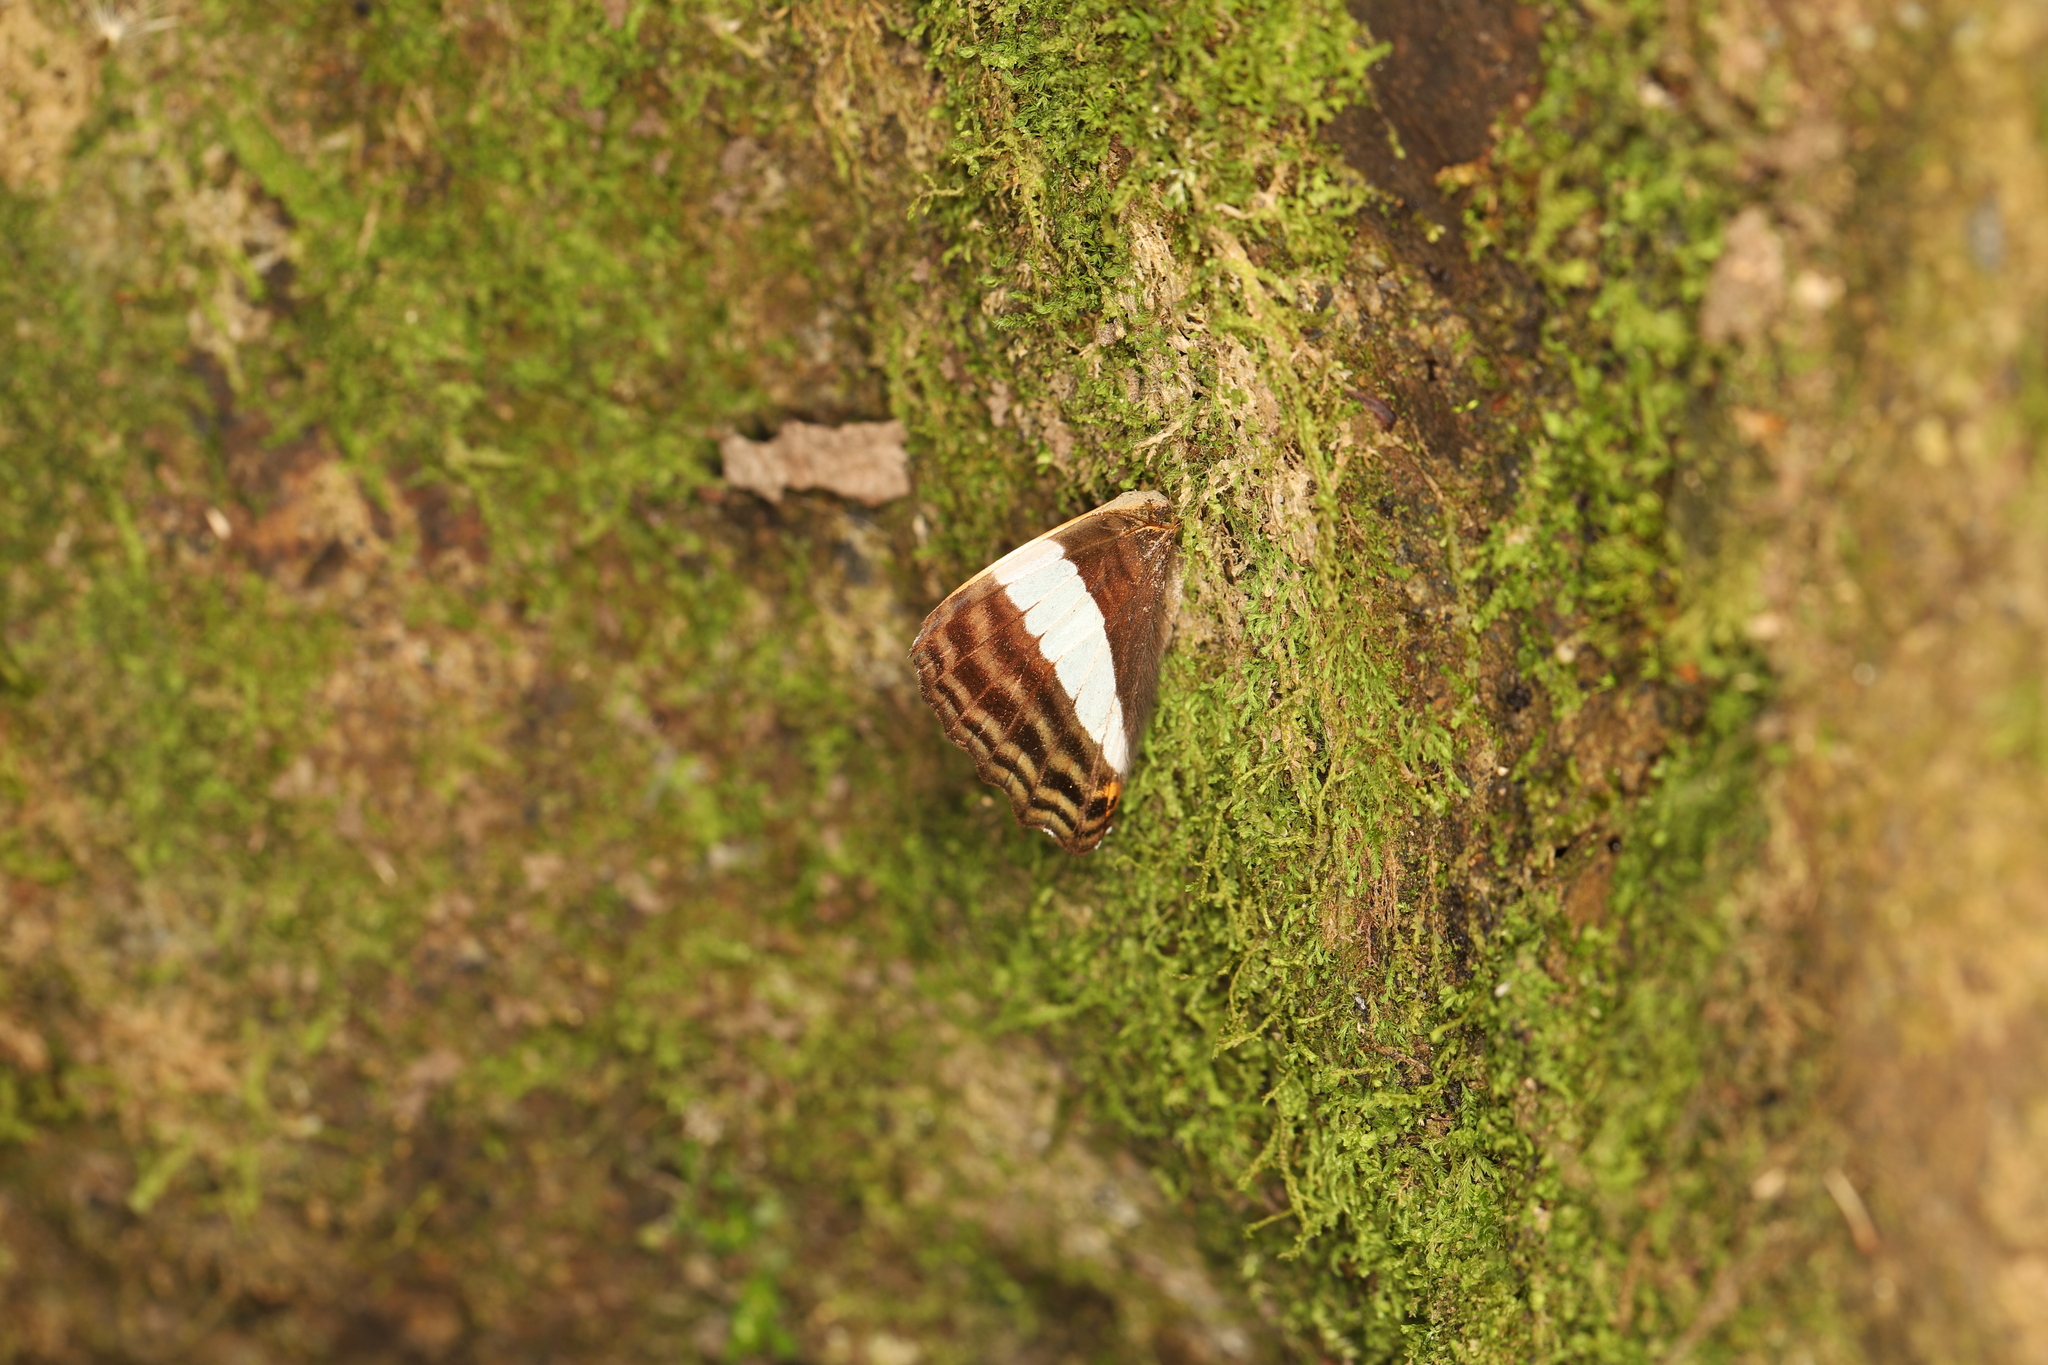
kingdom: Animalia
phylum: Arthropoda
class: Insecta
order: Lepidoptera
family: Nymphalidae
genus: Limenitis
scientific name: Limenitis alala
